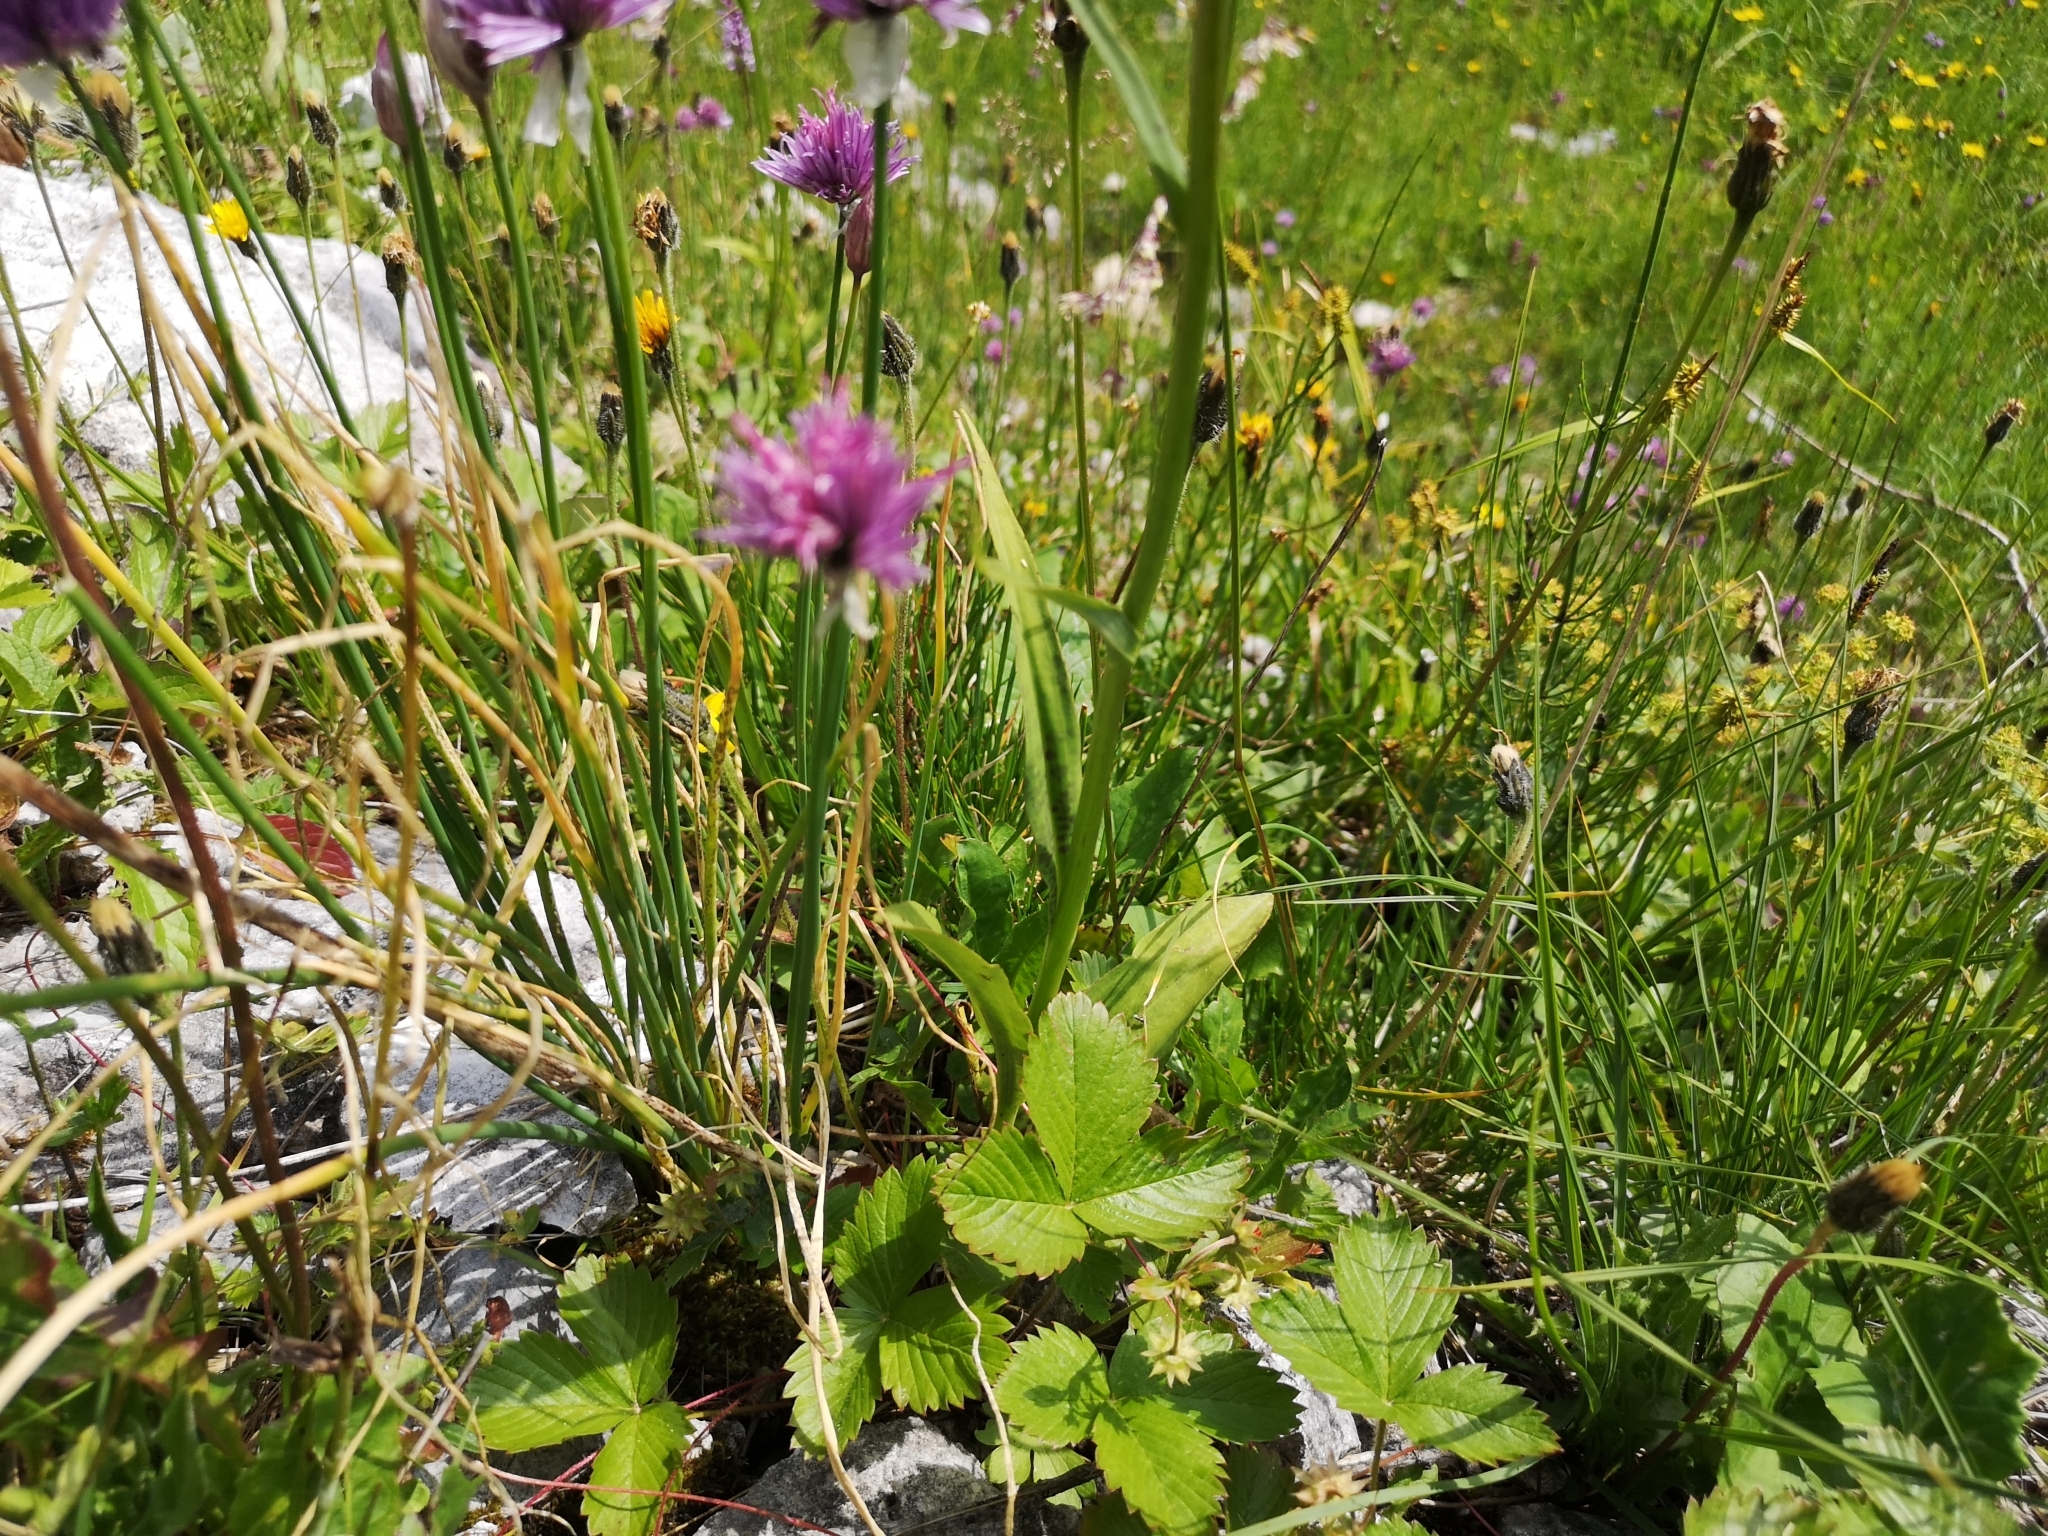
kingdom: Plantae
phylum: Tracheophyta
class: Liliopsida
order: Asparagales
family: Amaryllidaceae
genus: Allium
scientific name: Allium schoenoprasum
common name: Chives
